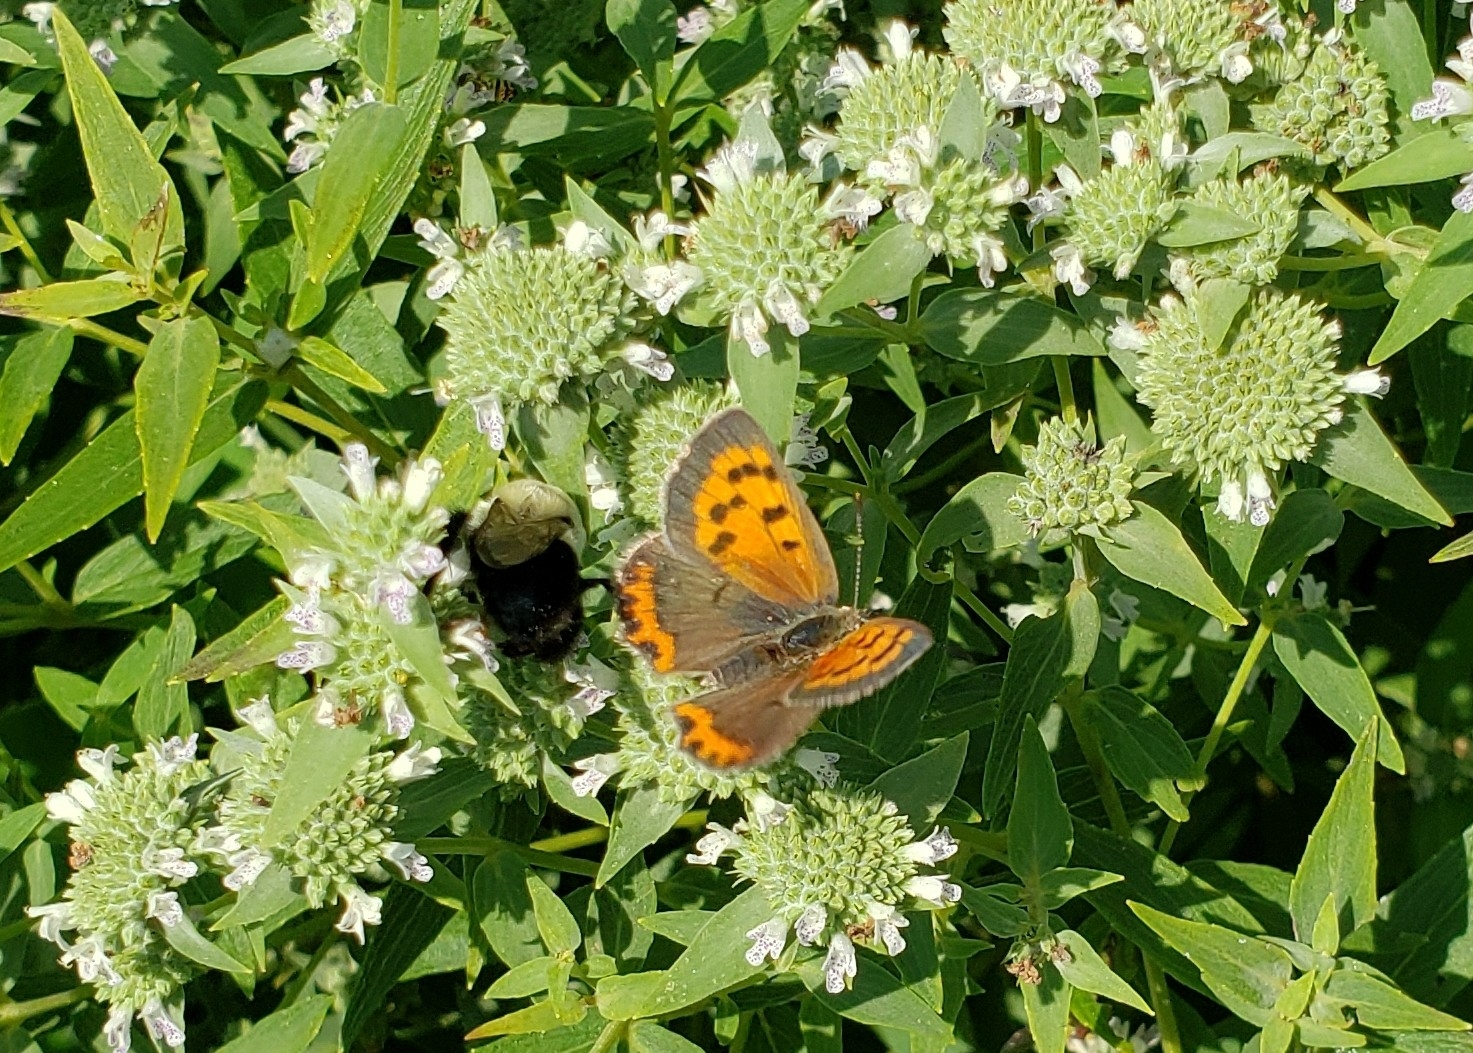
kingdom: Animalia
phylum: Arthropoda
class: Insecta
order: Lepidoptera
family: Lycaenidae
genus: Lycaena
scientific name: Lycaena hypophlaeas
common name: American copper
